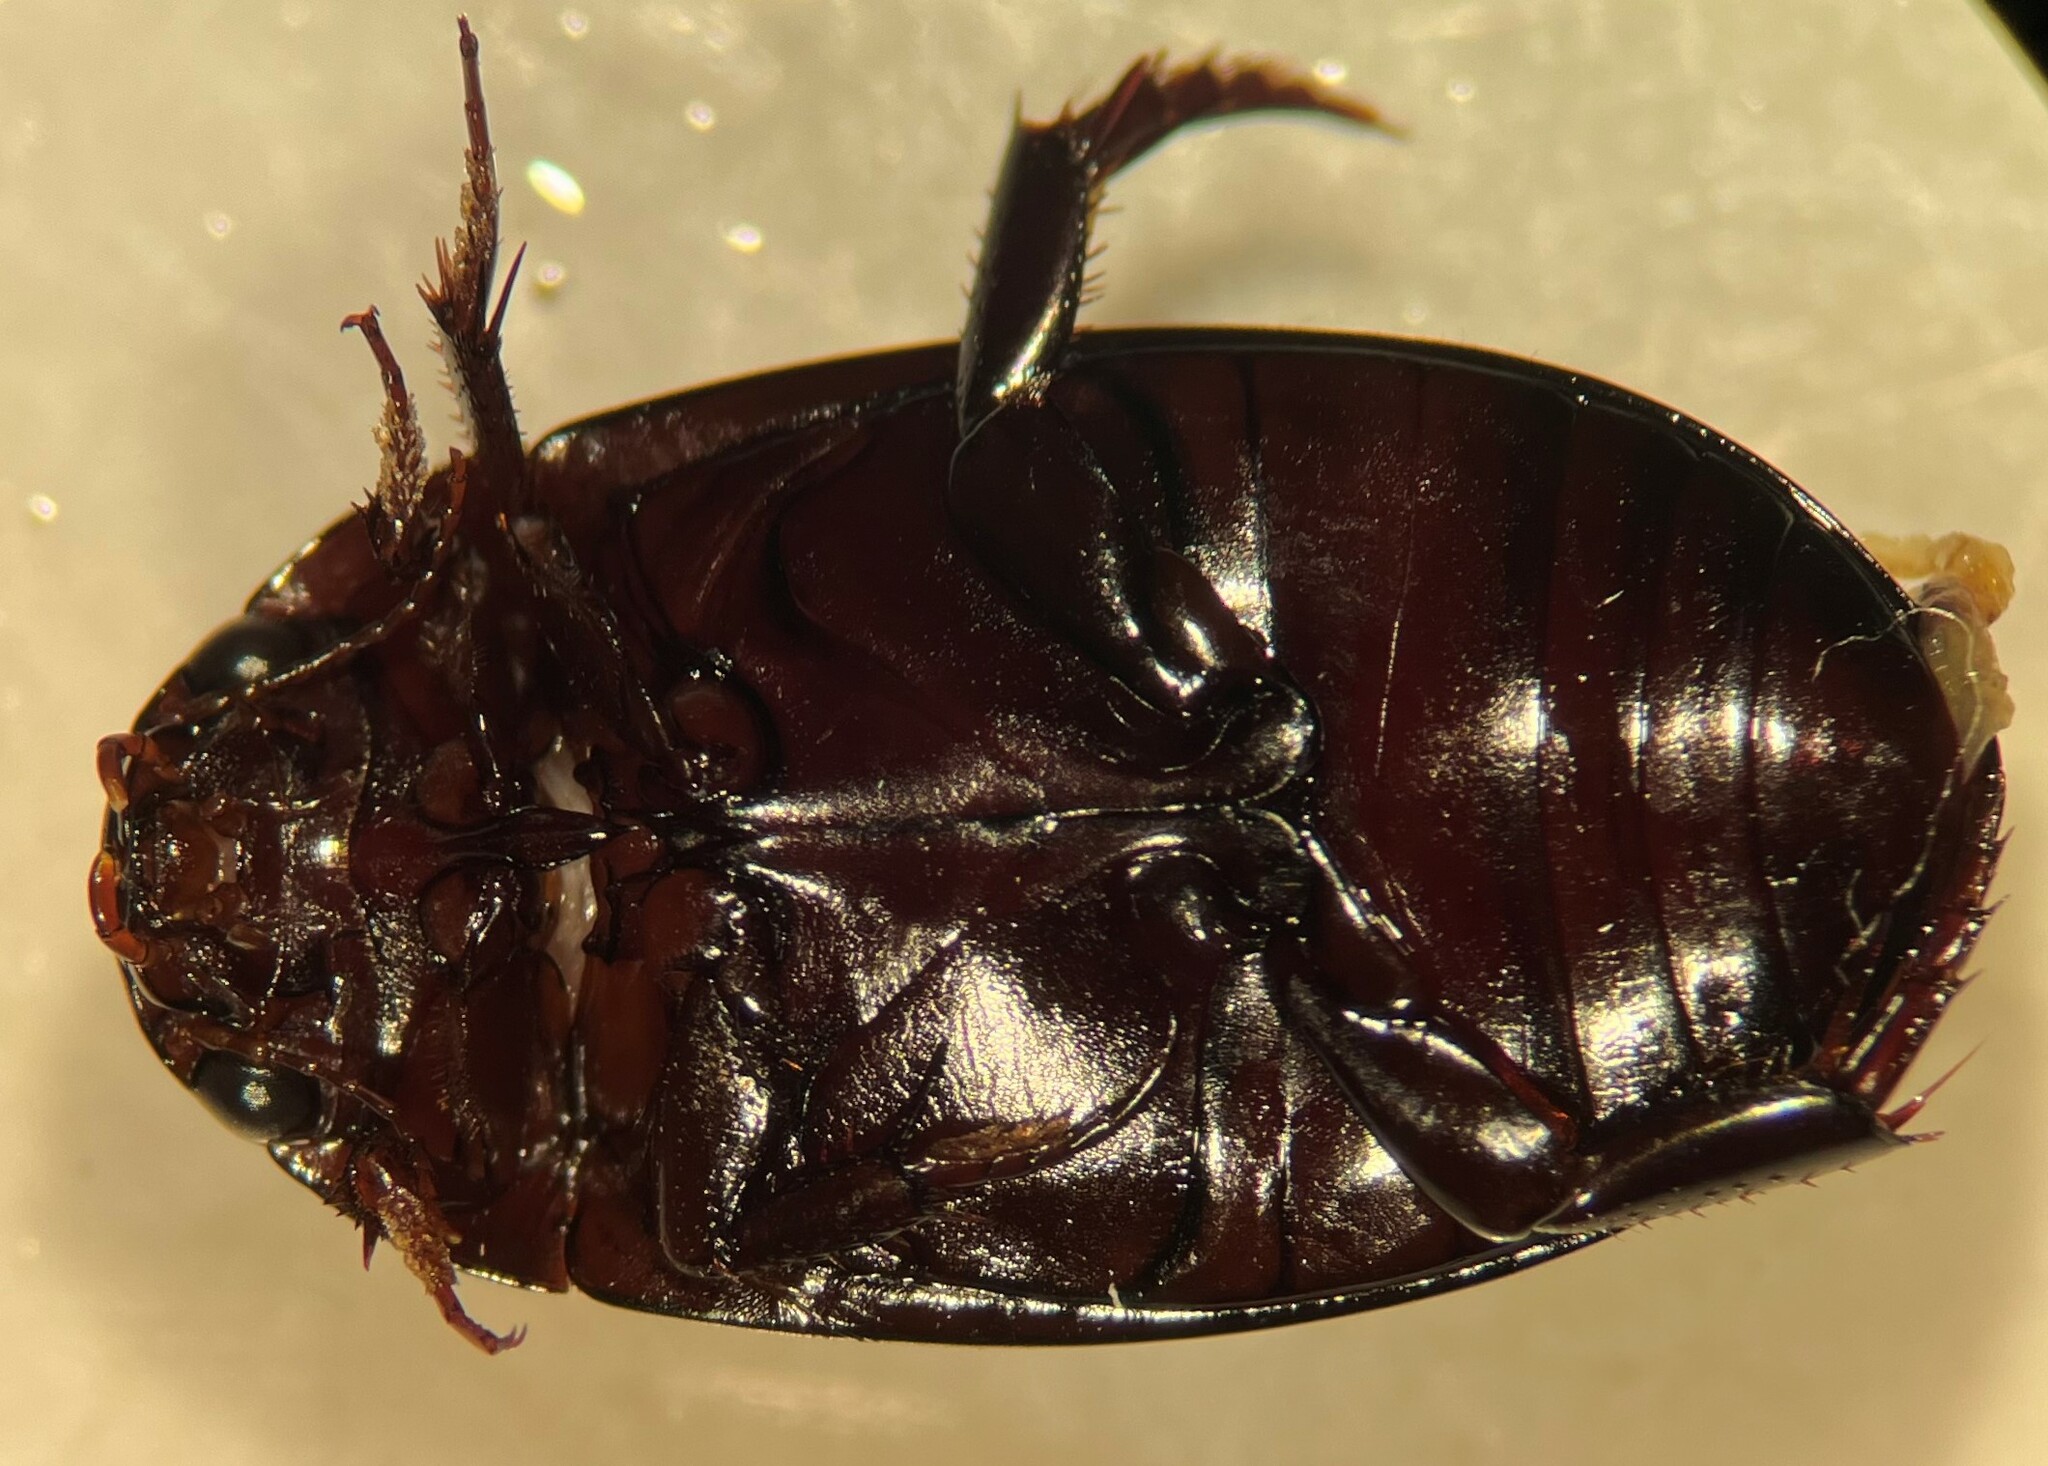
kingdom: Animalia
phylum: Arthropoda
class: Insecta
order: Coleoptera
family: Dytiscidae
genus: Ilybiosoma
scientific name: Ilybiosoma minnesotense
